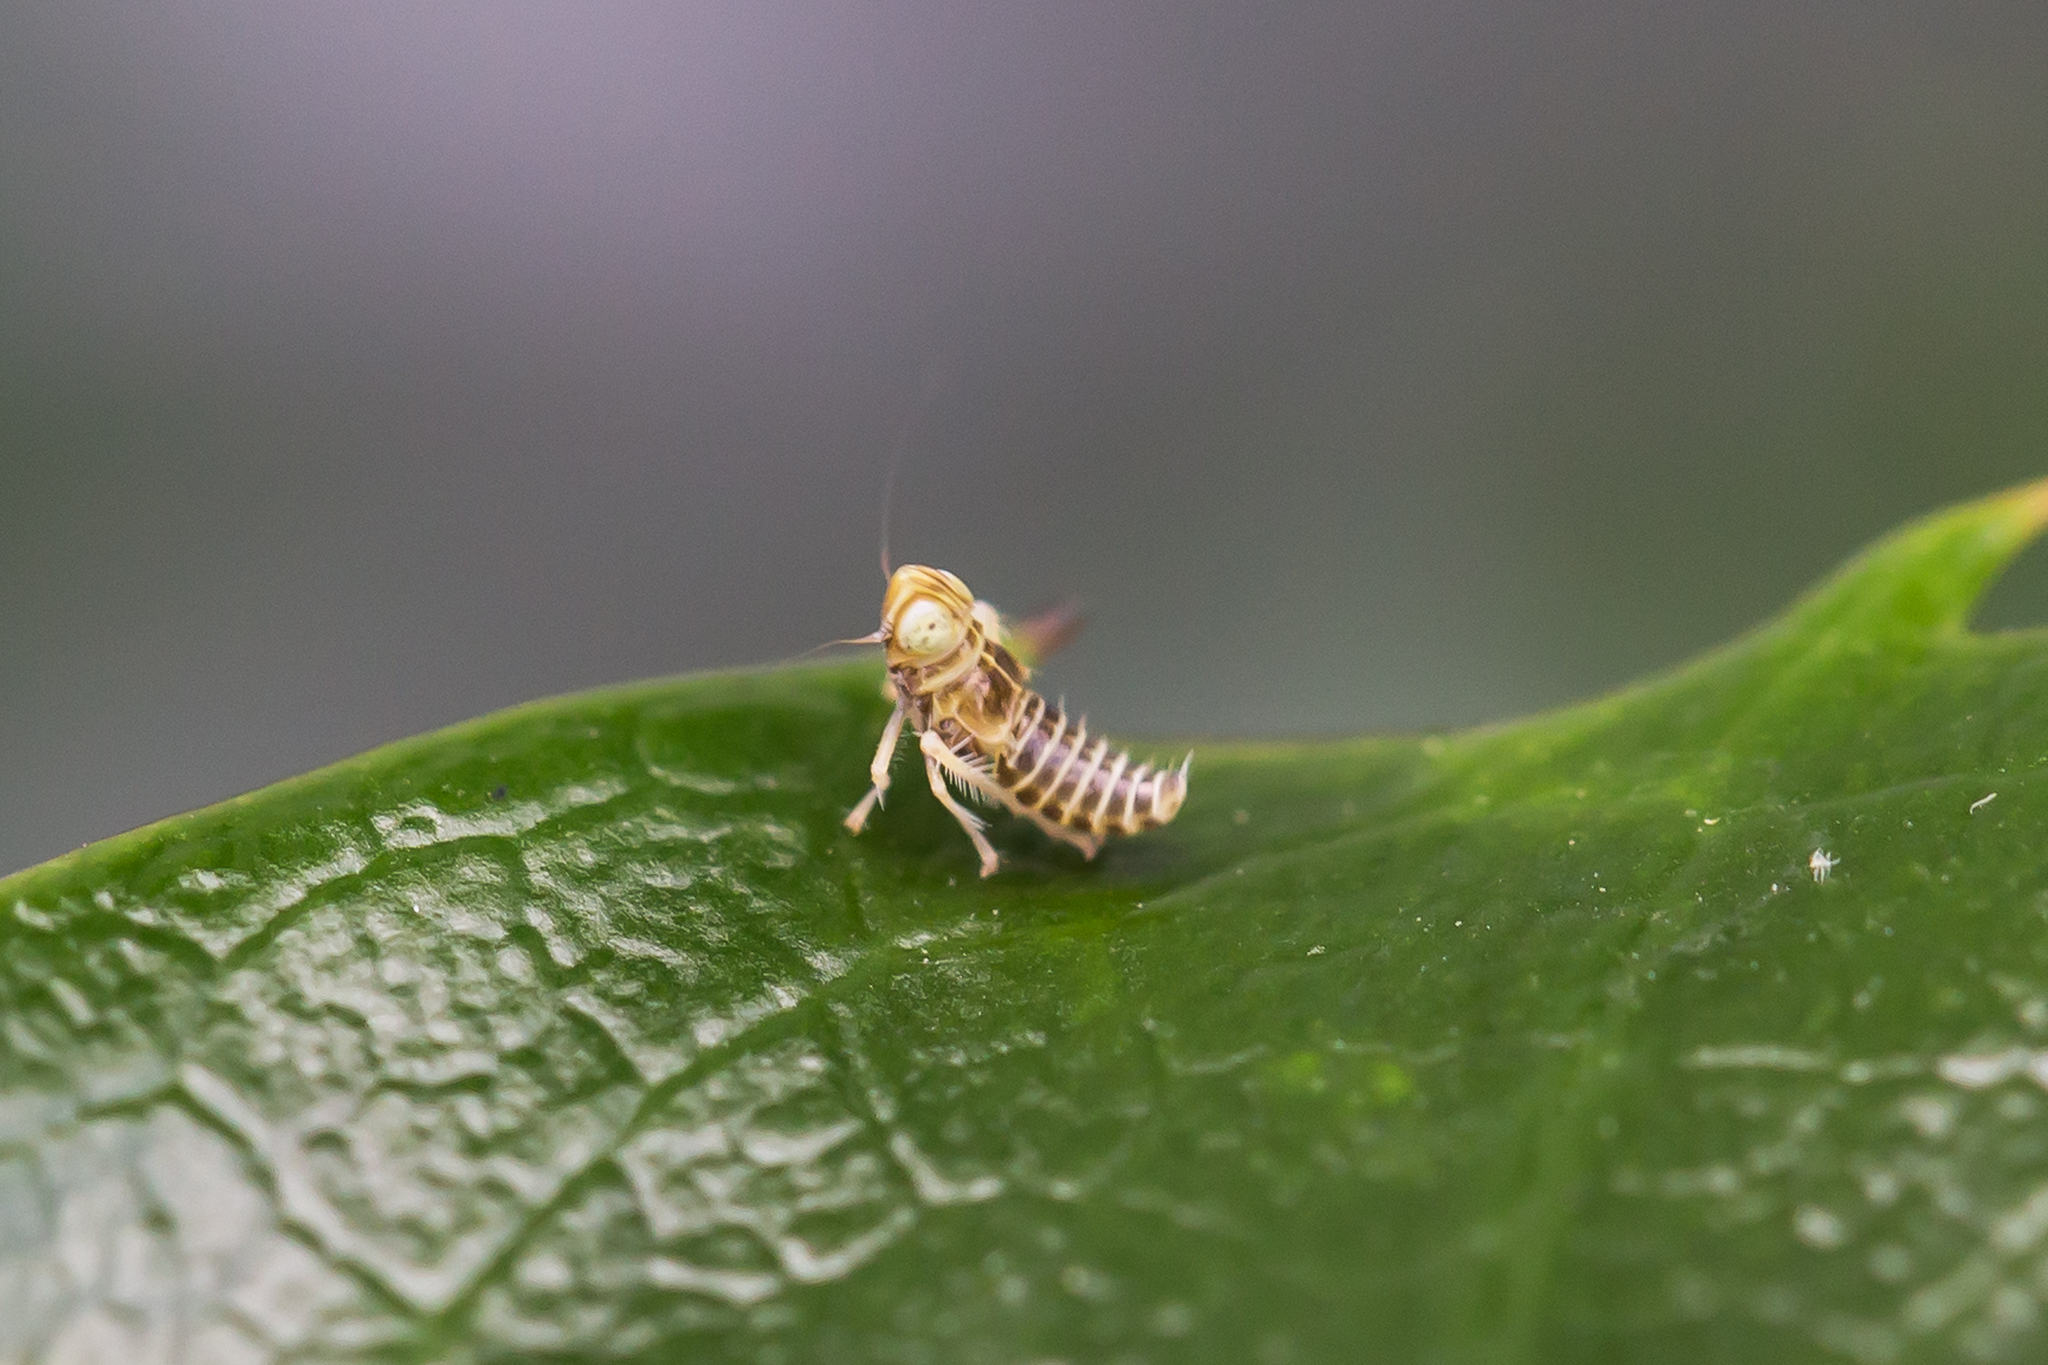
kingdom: Animalia
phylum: Arthropoda
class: Insecta
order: Hemiptera
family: Cicadellidae
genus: Jikradia
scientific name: Jikradia olitoria
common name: Coppery leafhopper
